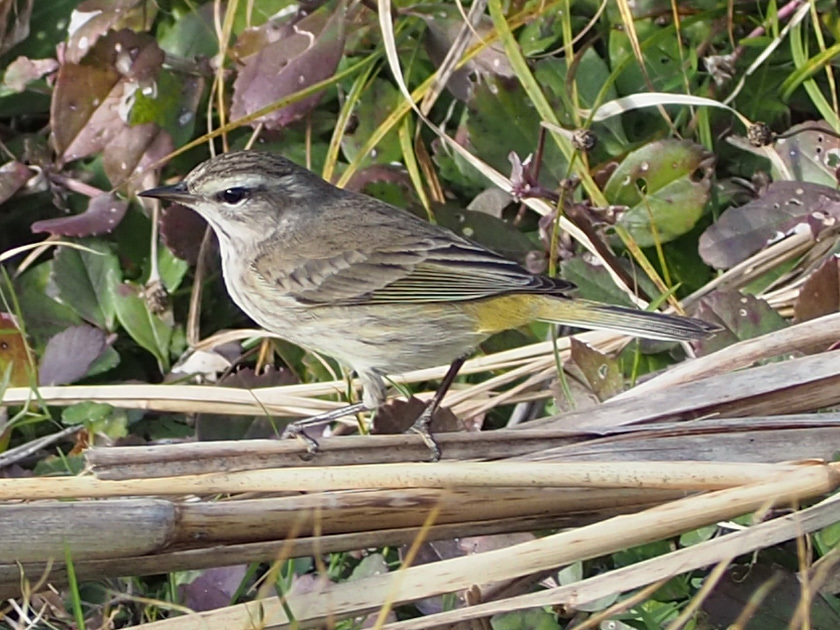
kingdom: Animalia
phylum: Chordata
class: Aves
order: Passeriformes
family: Parulidae
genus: Setophaga
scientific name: Setophaga palmarum
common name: Palm warbler
